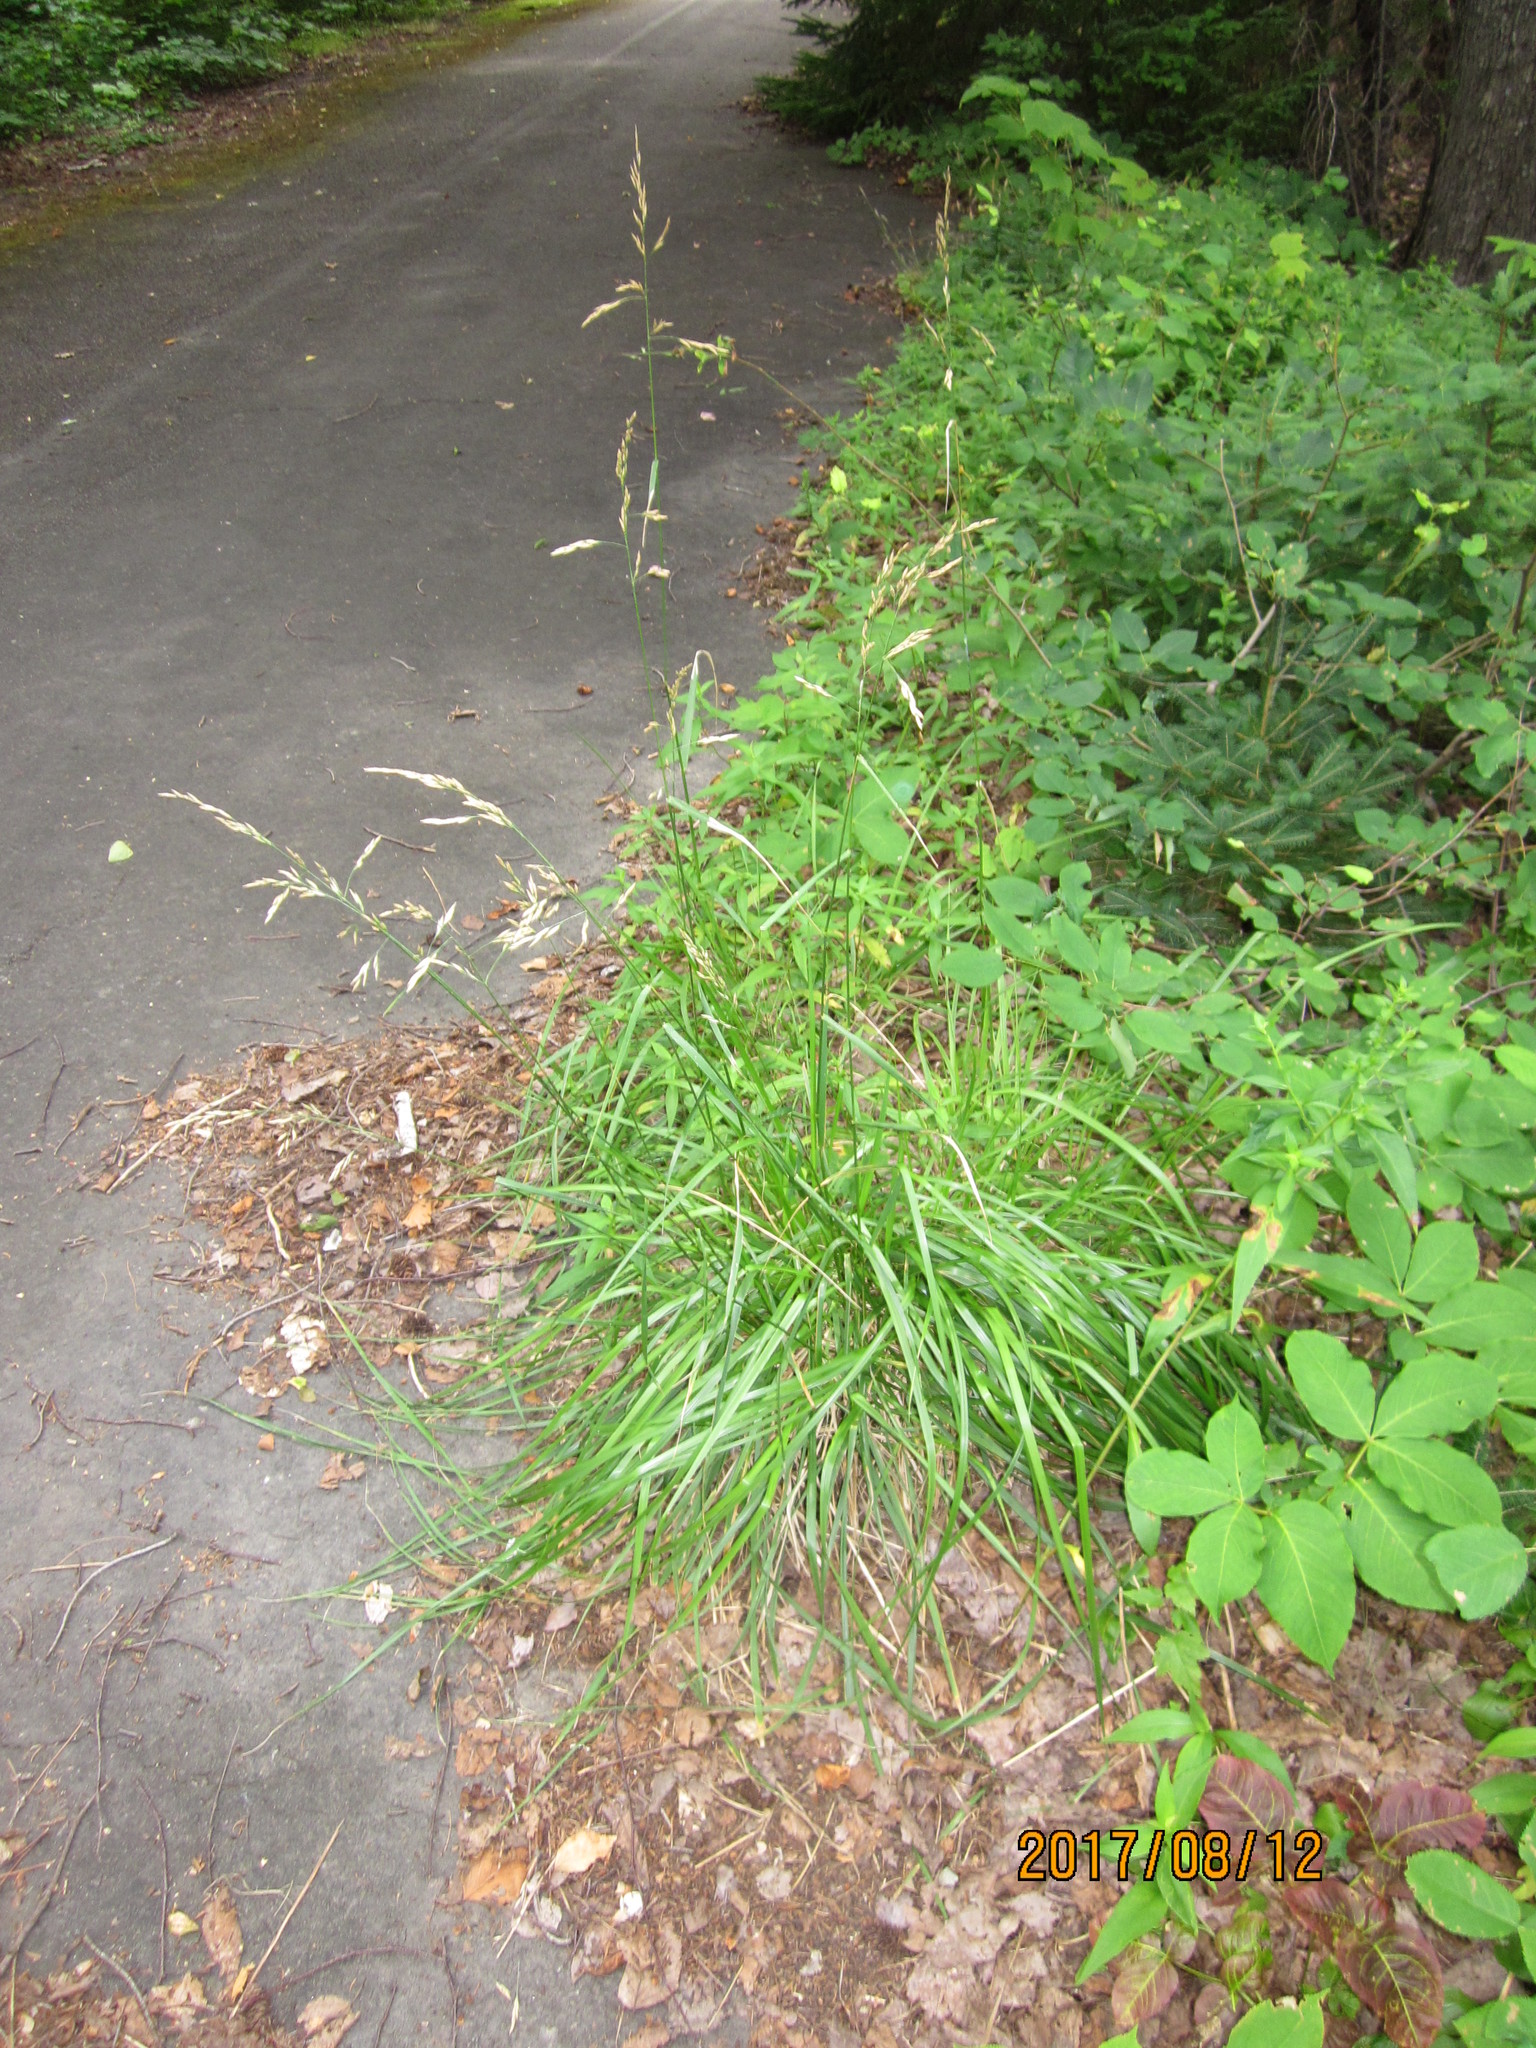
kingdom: Plantae
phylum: Tracheophyta
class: Liliopsida
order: Poales
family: Poaceae
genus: Lolium
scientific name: Lolium arundinaceum
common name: Reed fescue
